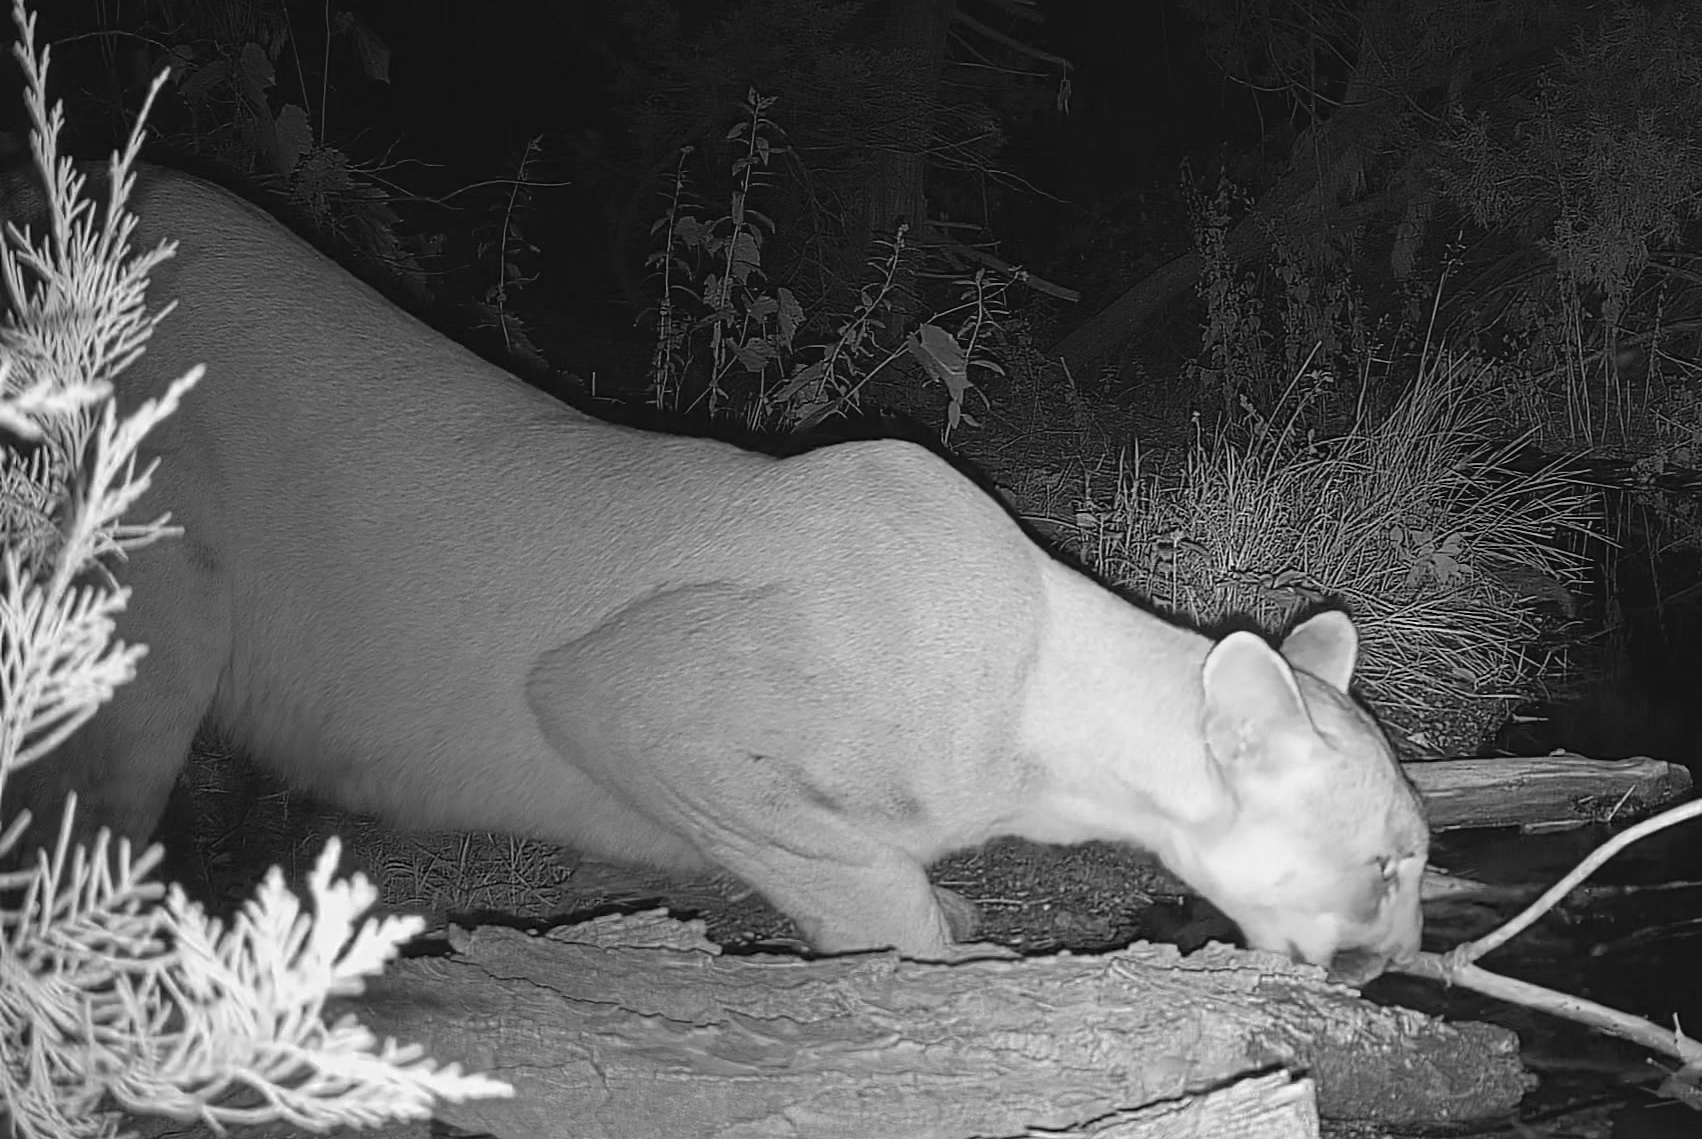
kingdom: Animalia
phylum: Chordata
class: Mammalia
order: Carnivora
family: Felidae
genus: Puma
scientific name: Puma concolor
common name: Puma
